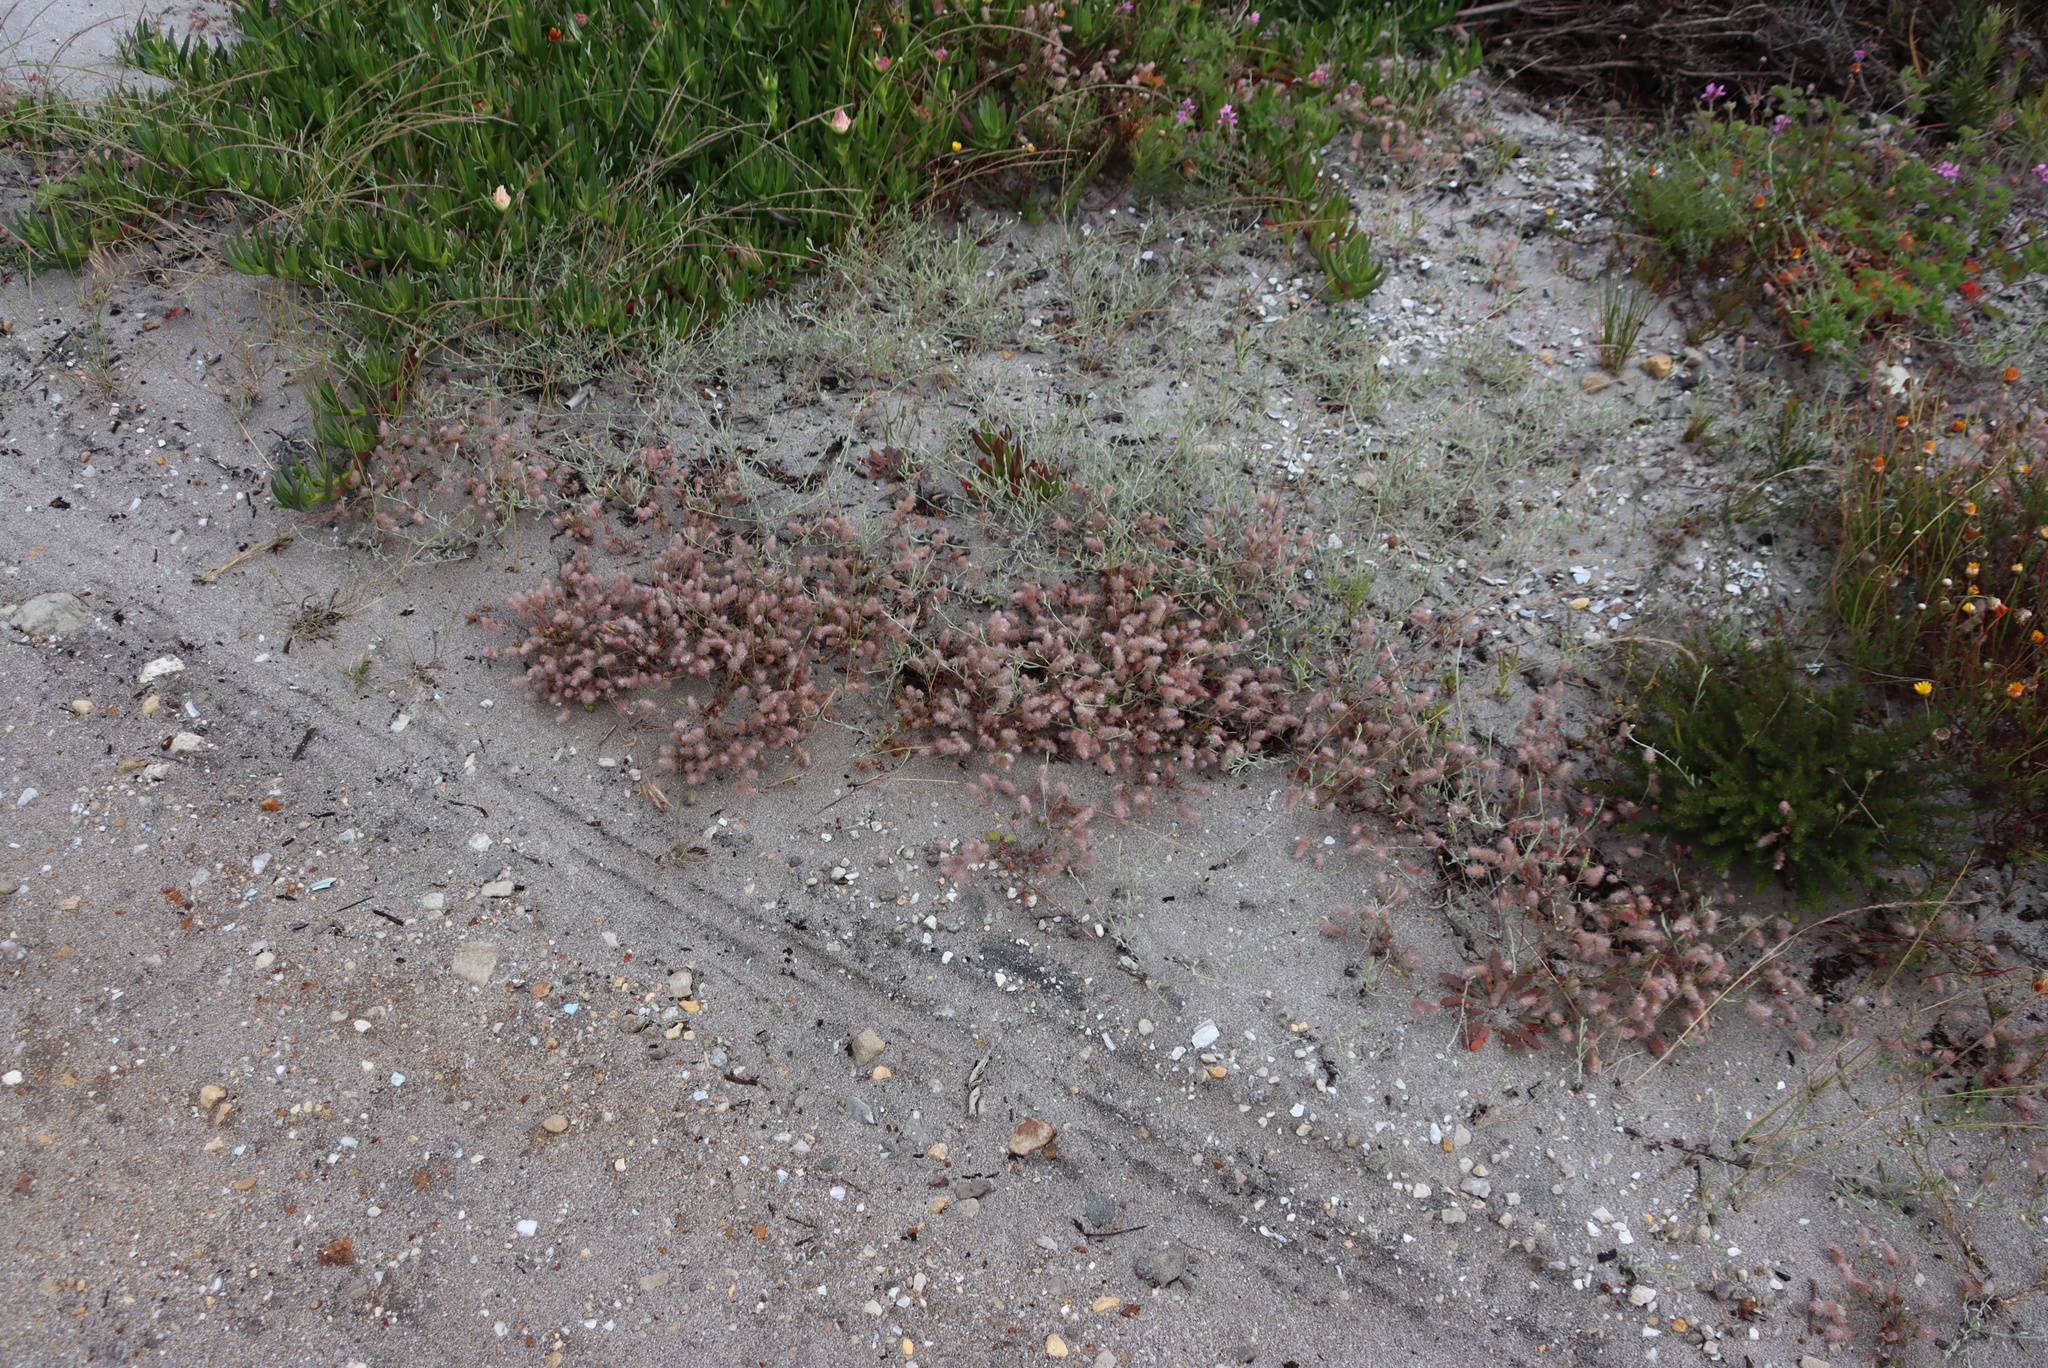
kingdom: Plantae
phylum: Tracheophyta
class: Magnoliopsida
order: Fabales
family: Fabaceae
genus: Trifolium
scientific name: Trifolium arvense
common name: Hare's-foot clover
